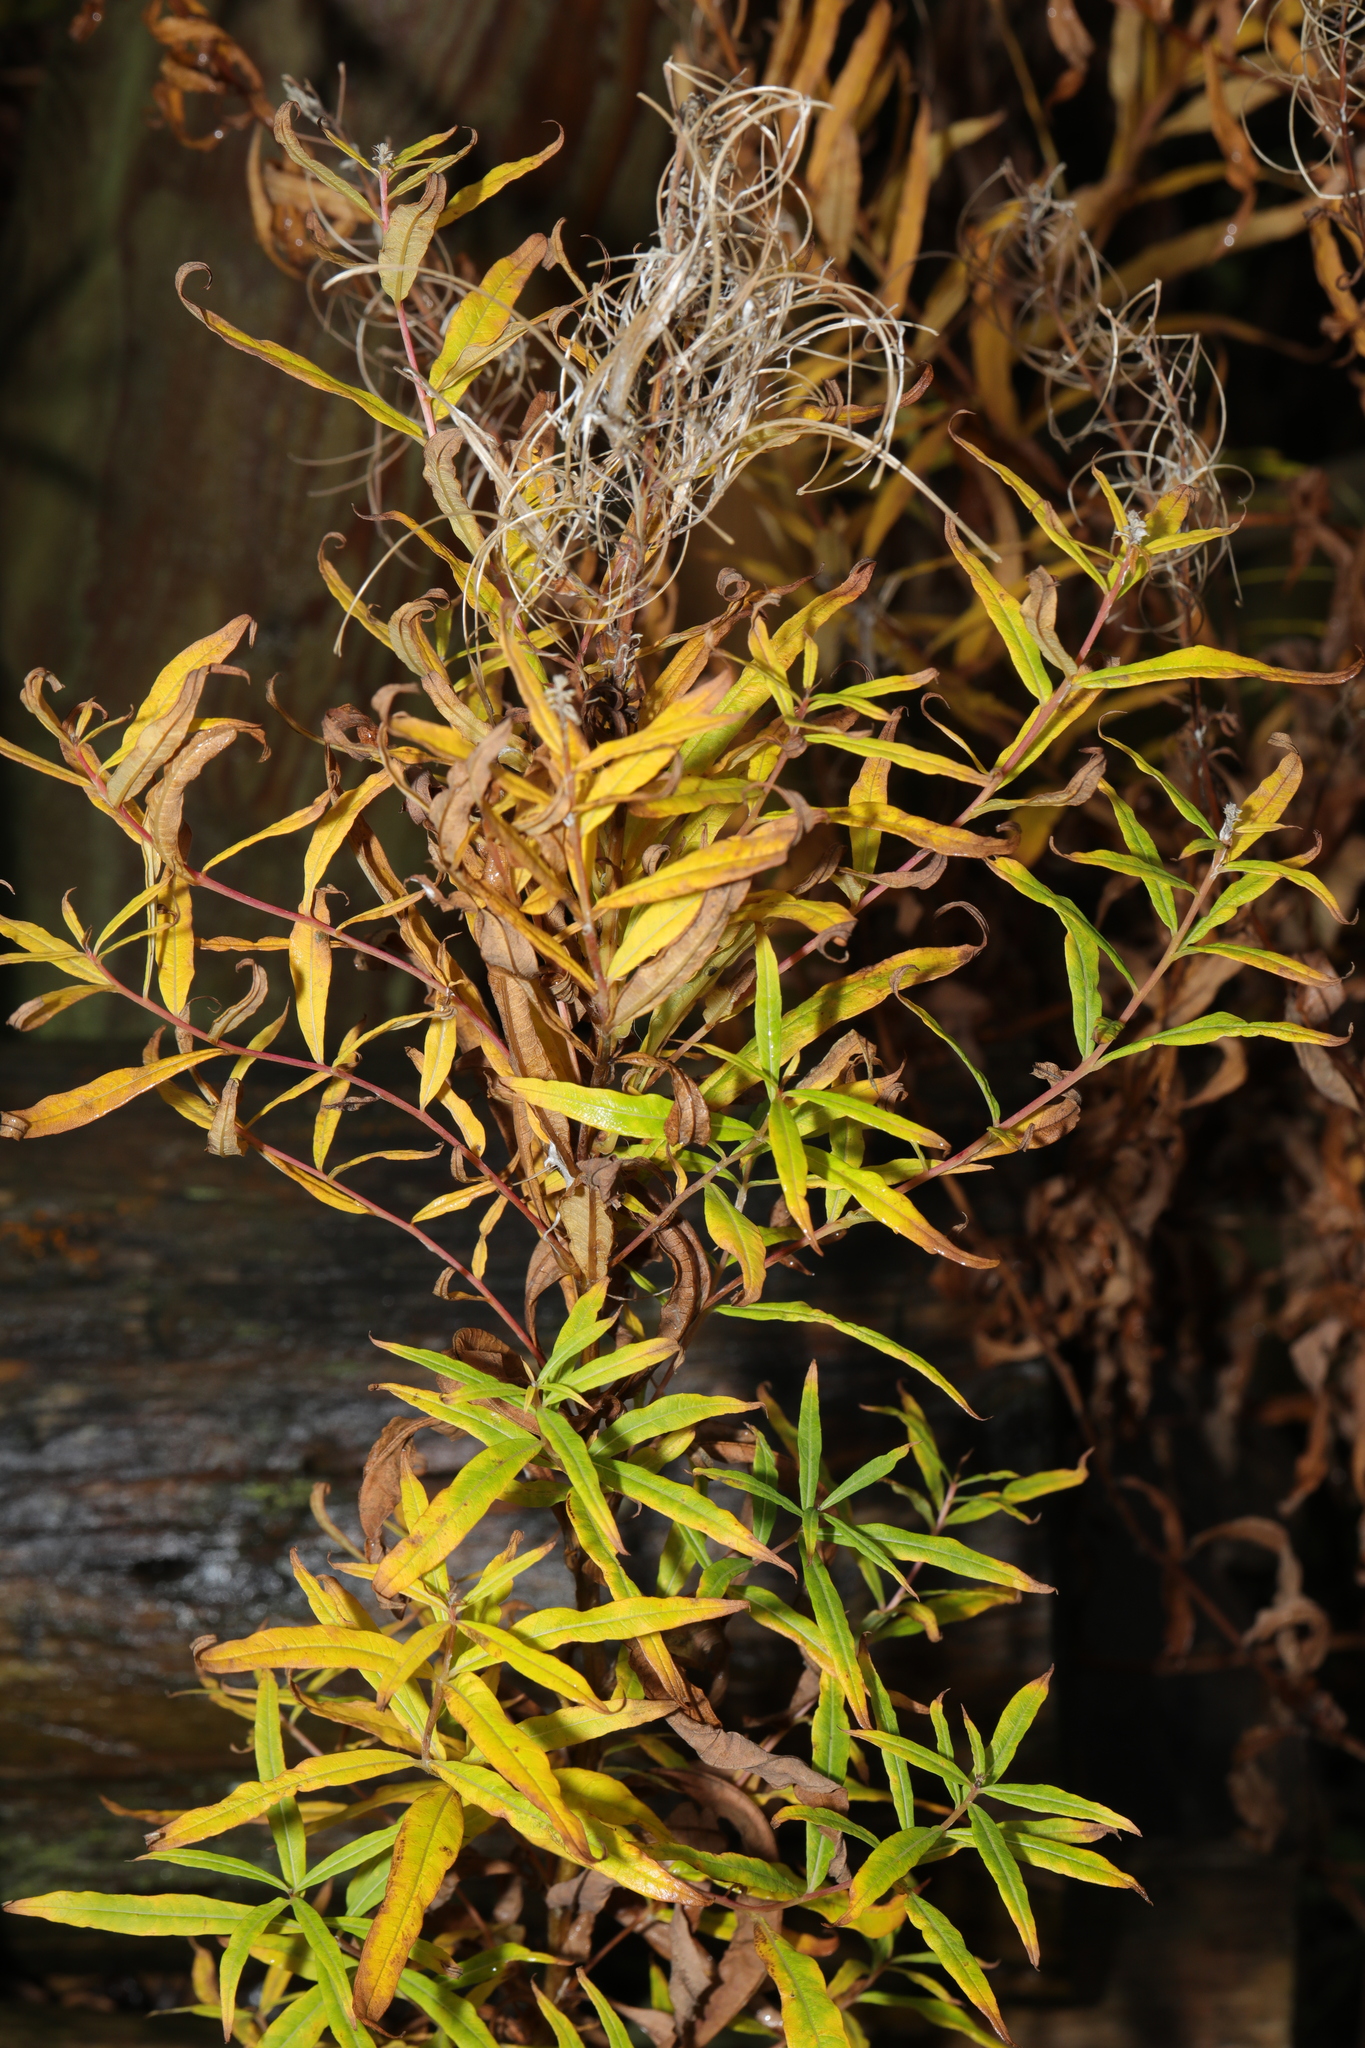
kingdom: Plantae
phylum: Tracheophyta
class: Magnoliopsida
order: Myrtales
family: Onagraceae
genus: Chamaenerion
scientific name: Chamaenerion angustifolium
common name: Fireweed
